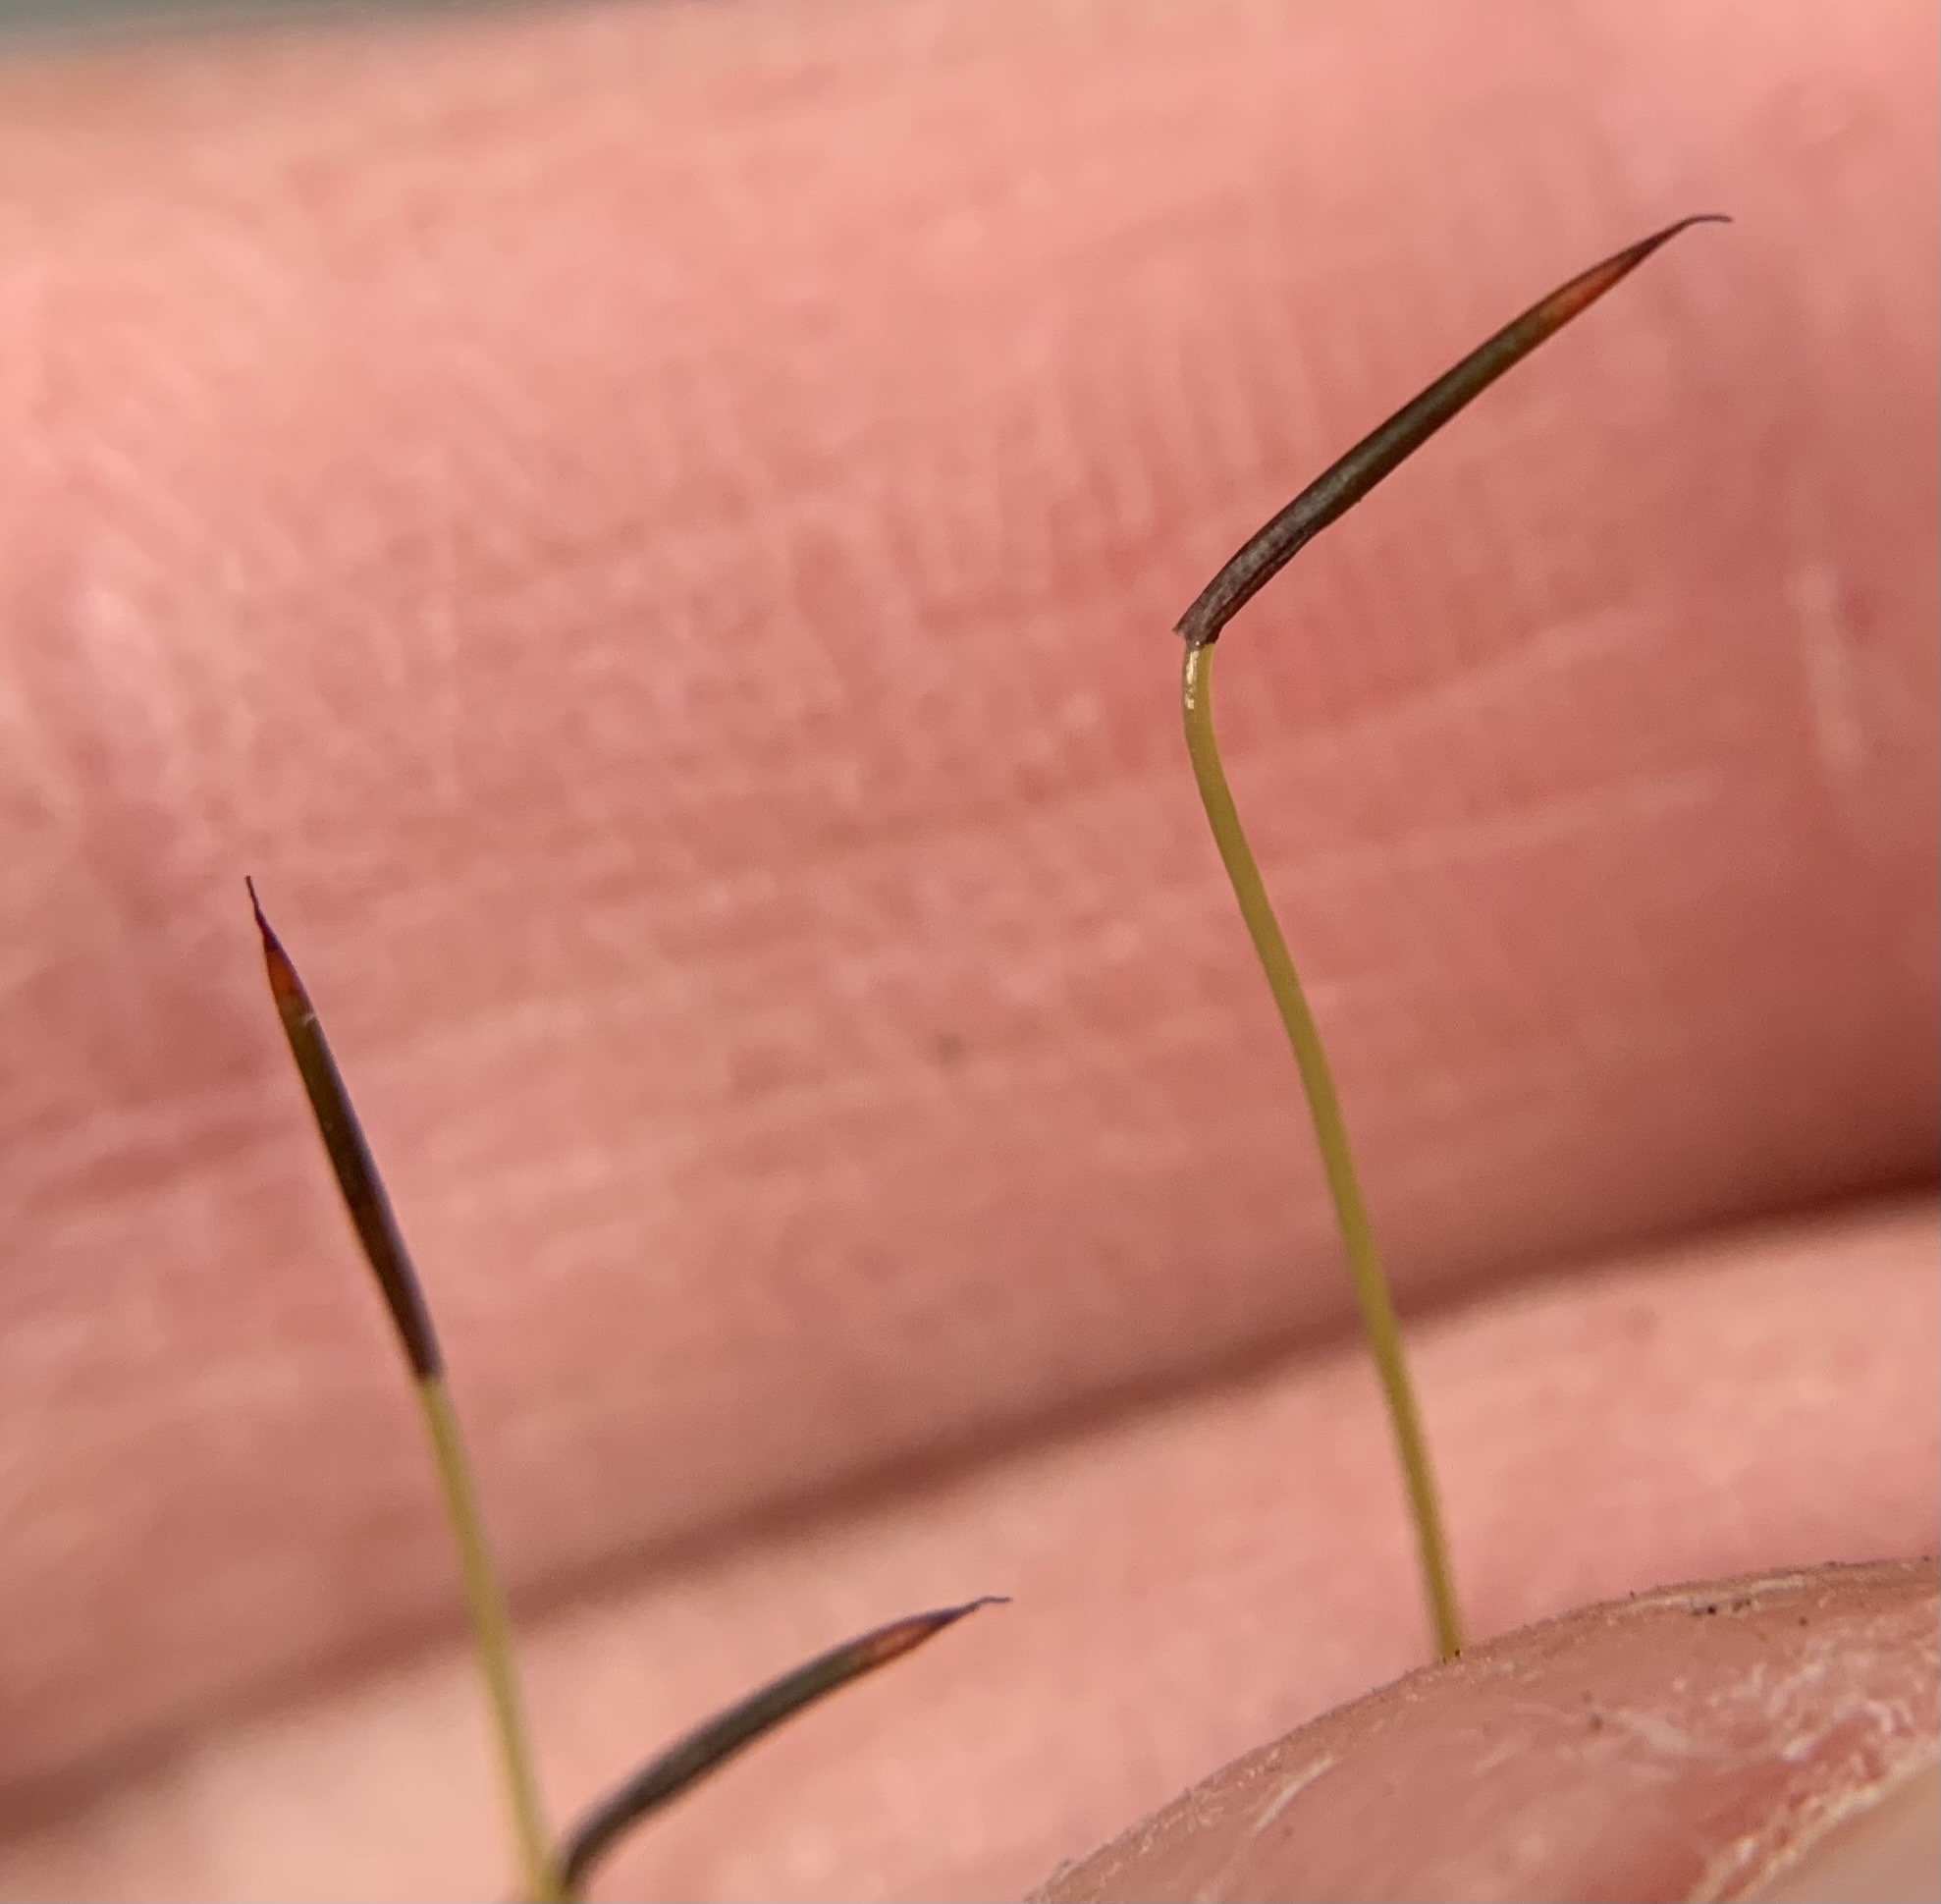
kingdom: Plantae
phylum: Bryophyta
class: Bryopsida
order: Bryales
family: Mniaceae
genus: Mnium
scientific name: Mnium hornum
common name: Swan's-neck leafy moss
